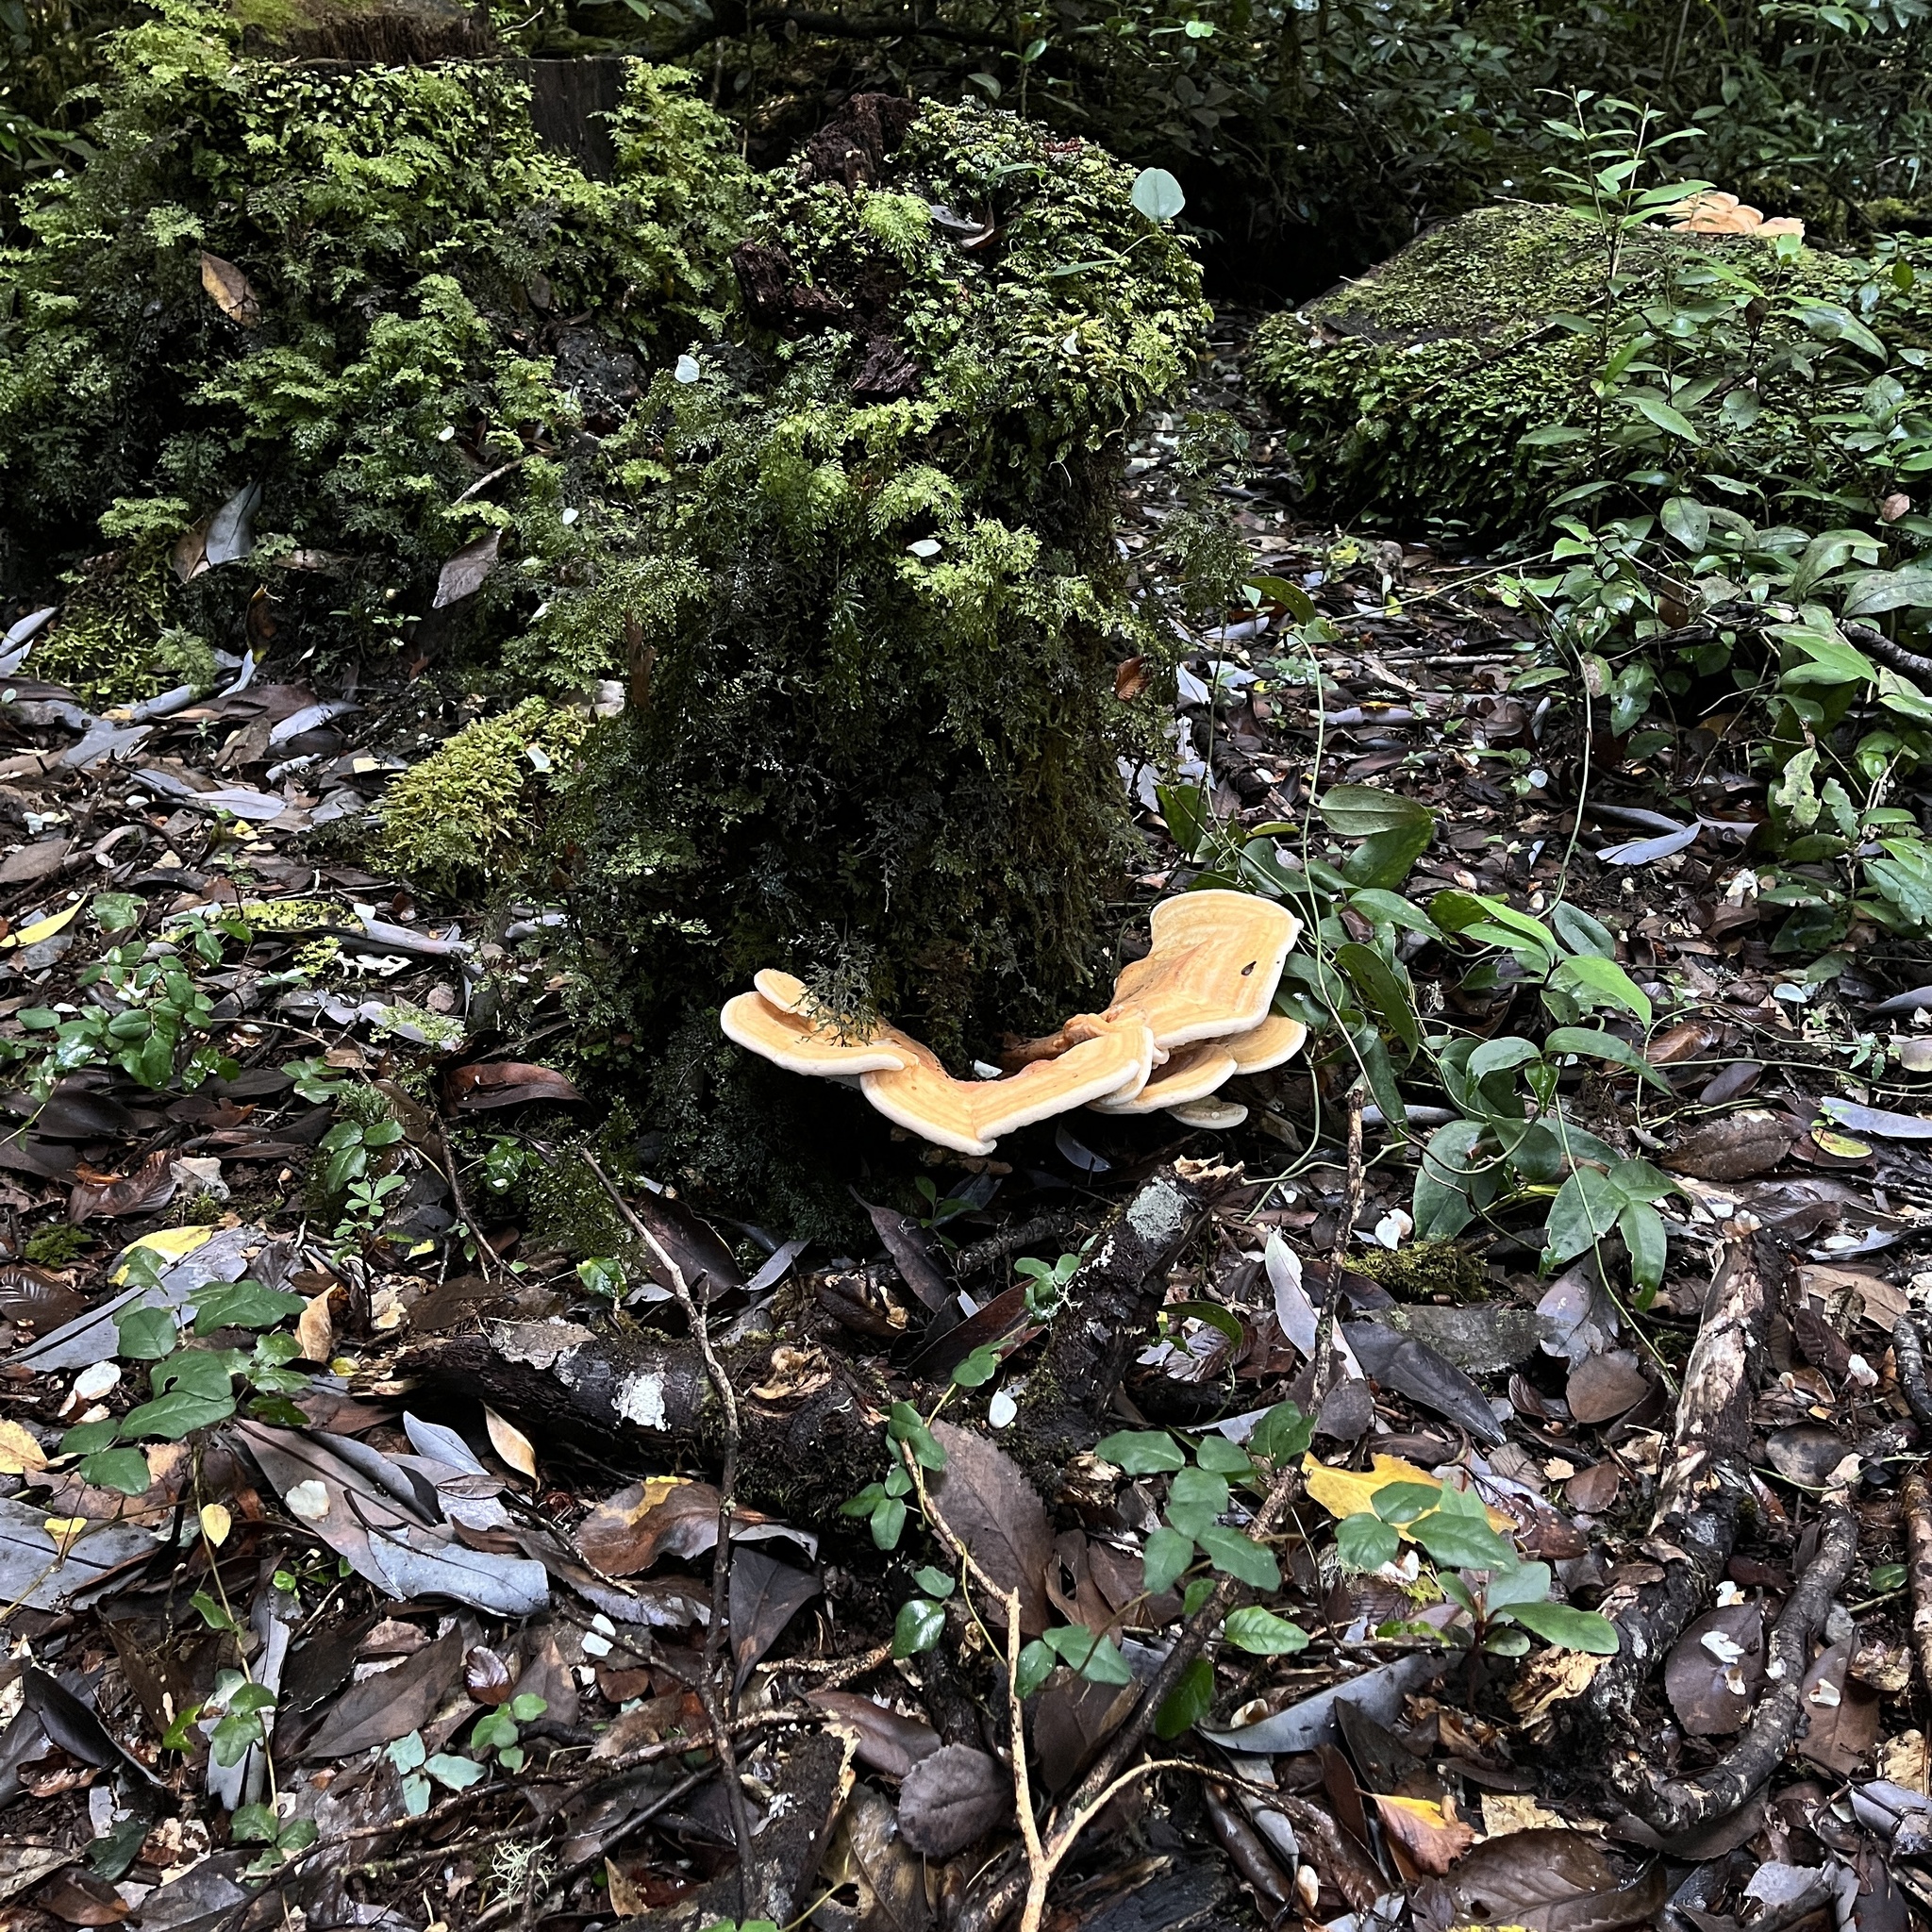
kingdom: Fungi
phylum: Basidiomycota
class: Agaricomycetes
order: Russulales
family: Bondarzewiaceae
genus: Bondarzewia
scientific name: Bondarzewia guaitecasensis
